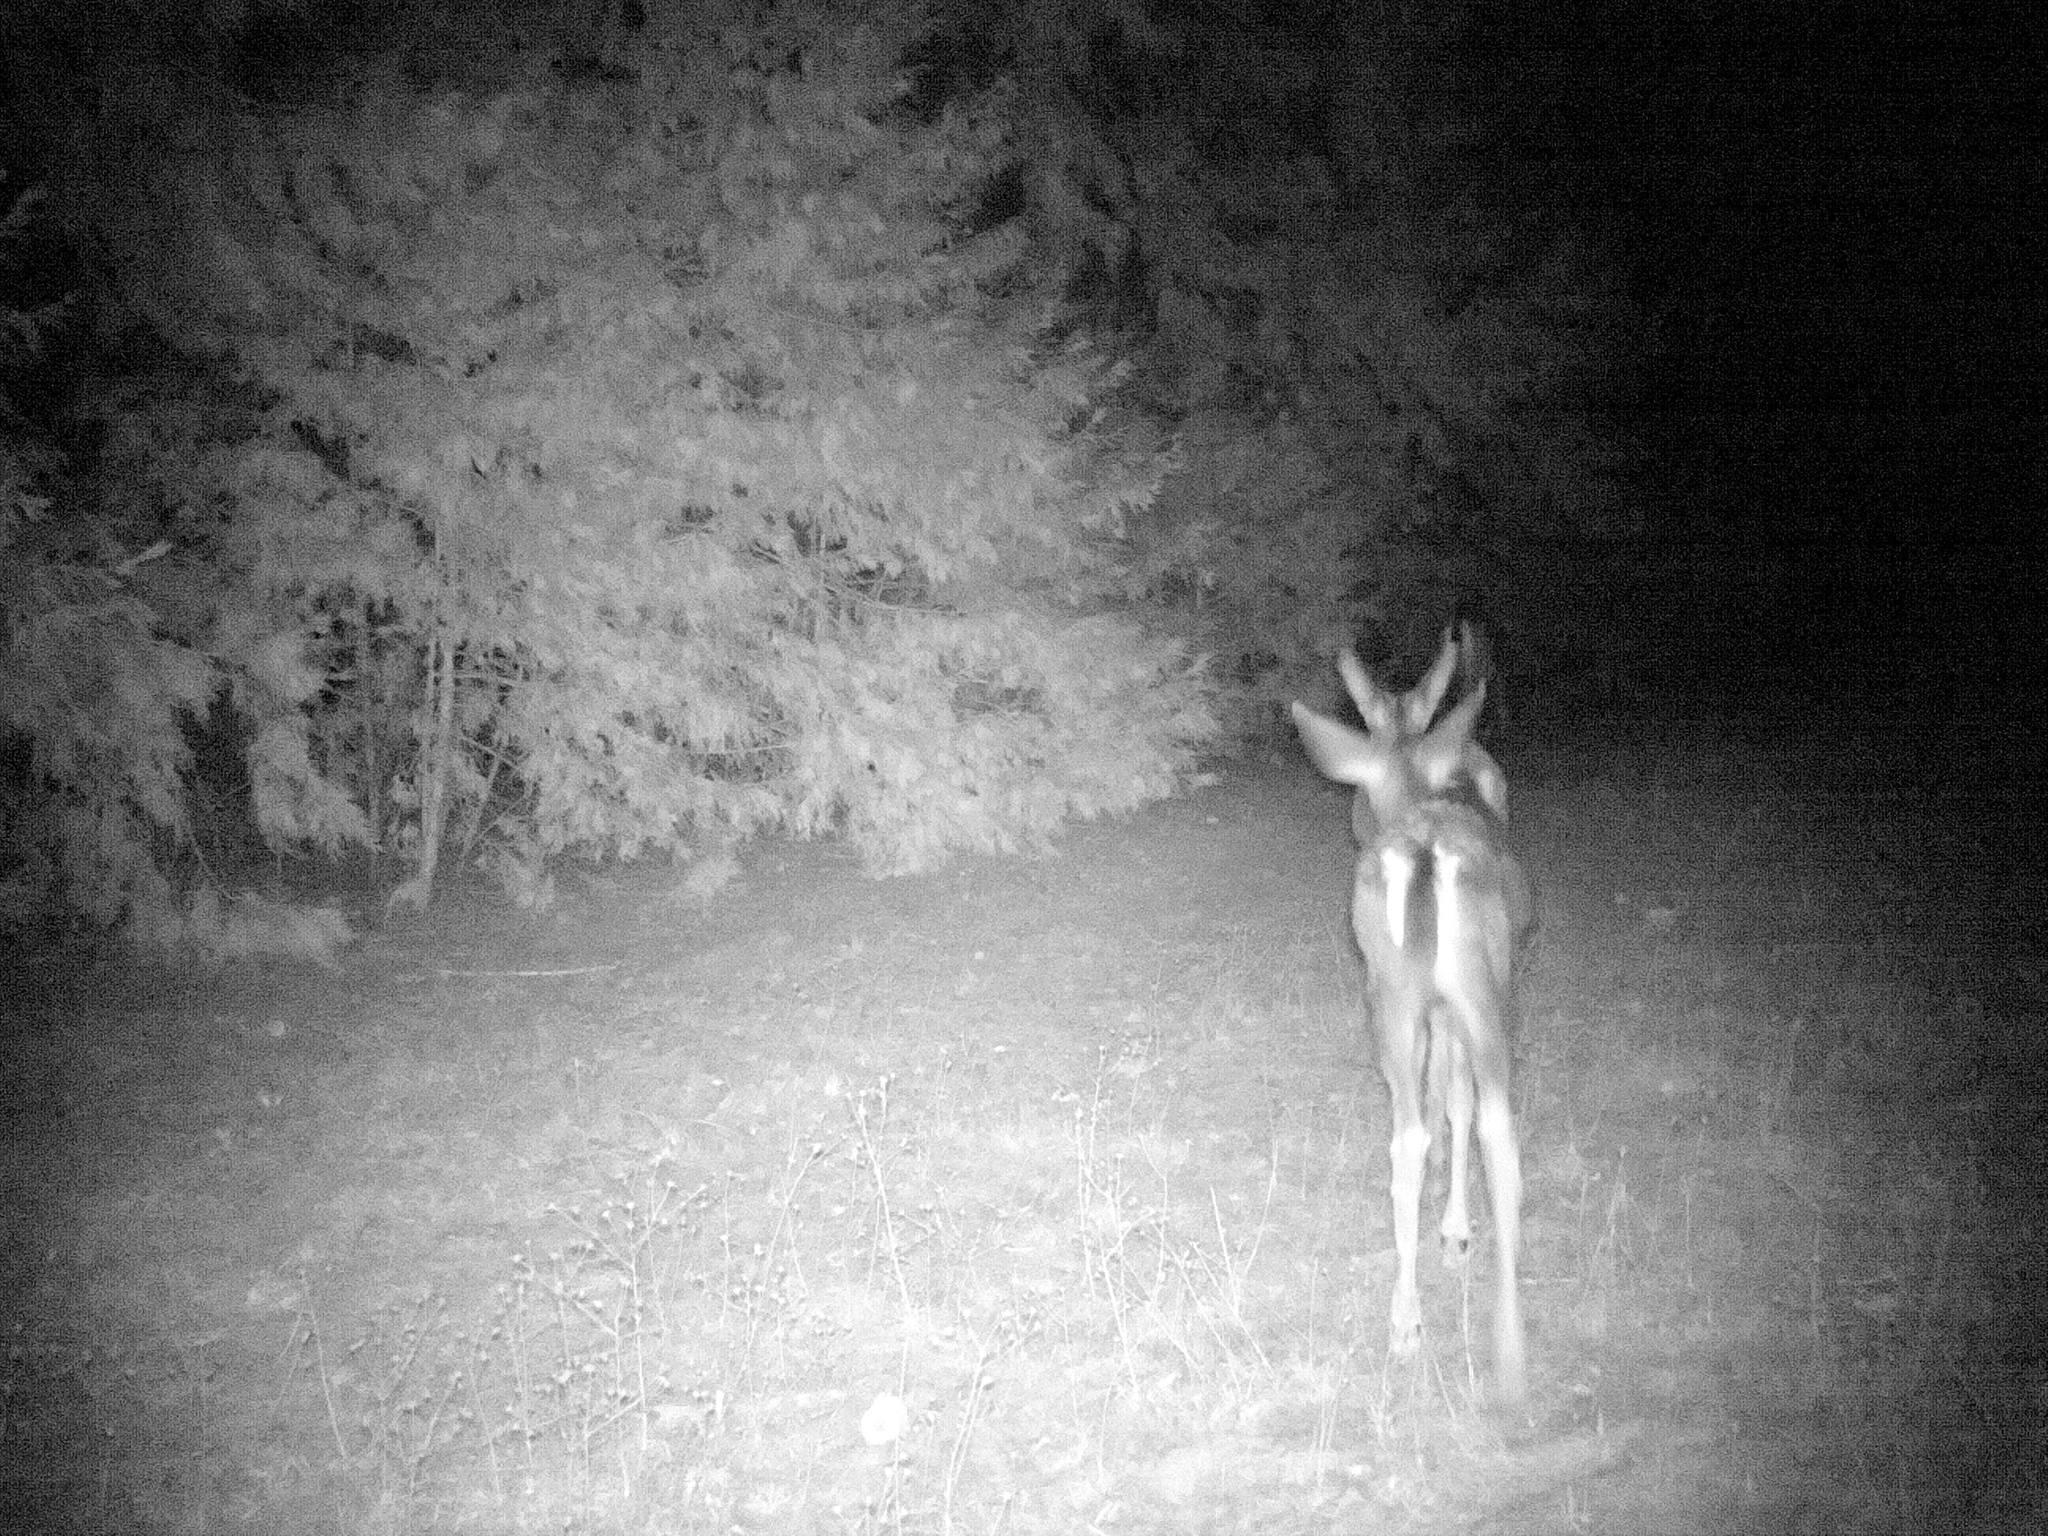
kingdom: Animalia
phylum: Chordata
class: Mammalia
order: Artiodactyla
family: Cervidae
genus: Odocoileus
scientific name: Odocoileus hemionus
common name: Mule deer
